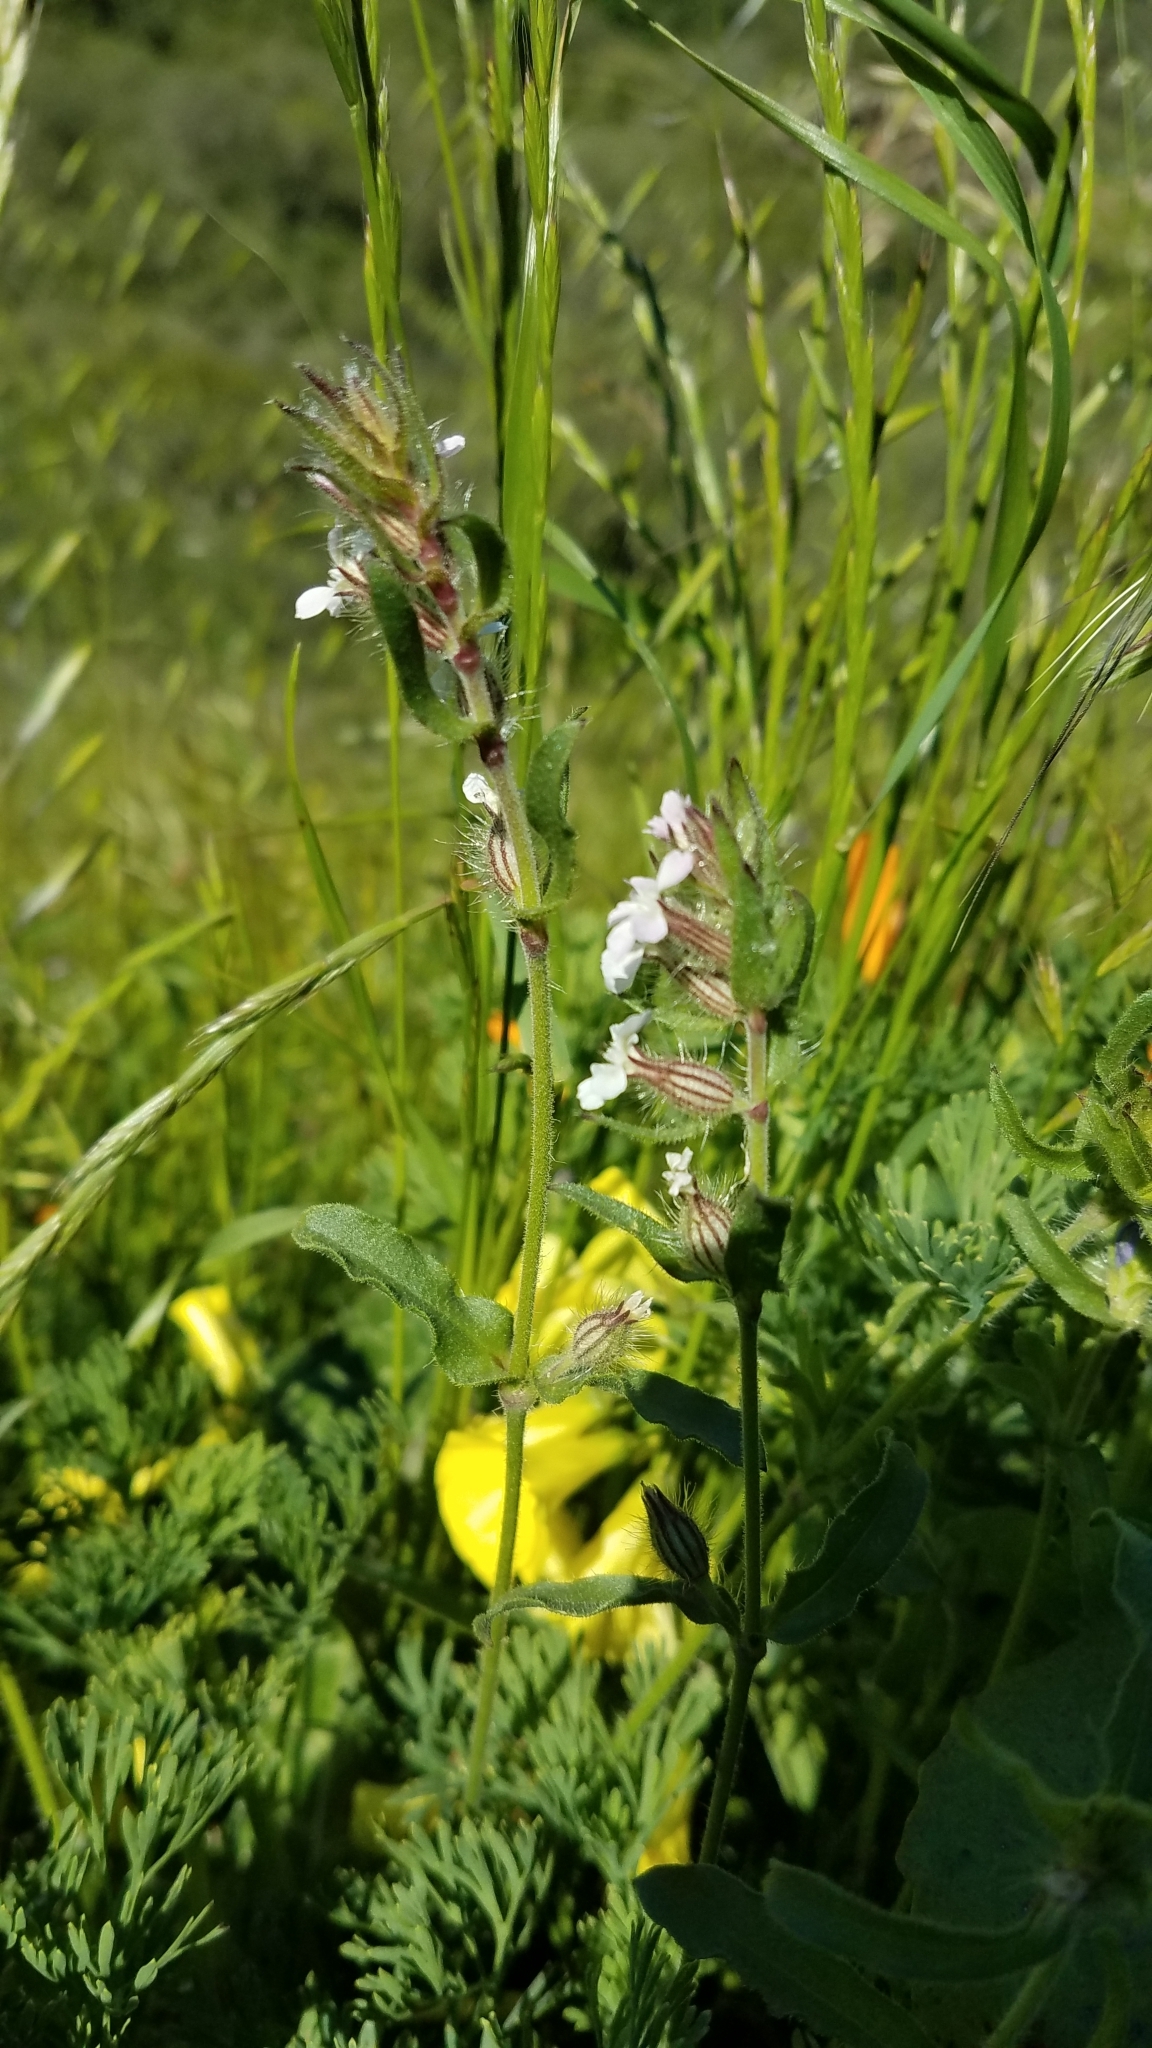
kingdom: Plantae
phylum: Tracheophyta
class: Magnoliopsida
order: Caryophyllales
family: Caryophyllaceae
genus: Silene
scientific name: Silene gallica
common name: Small-flowered catchfly
